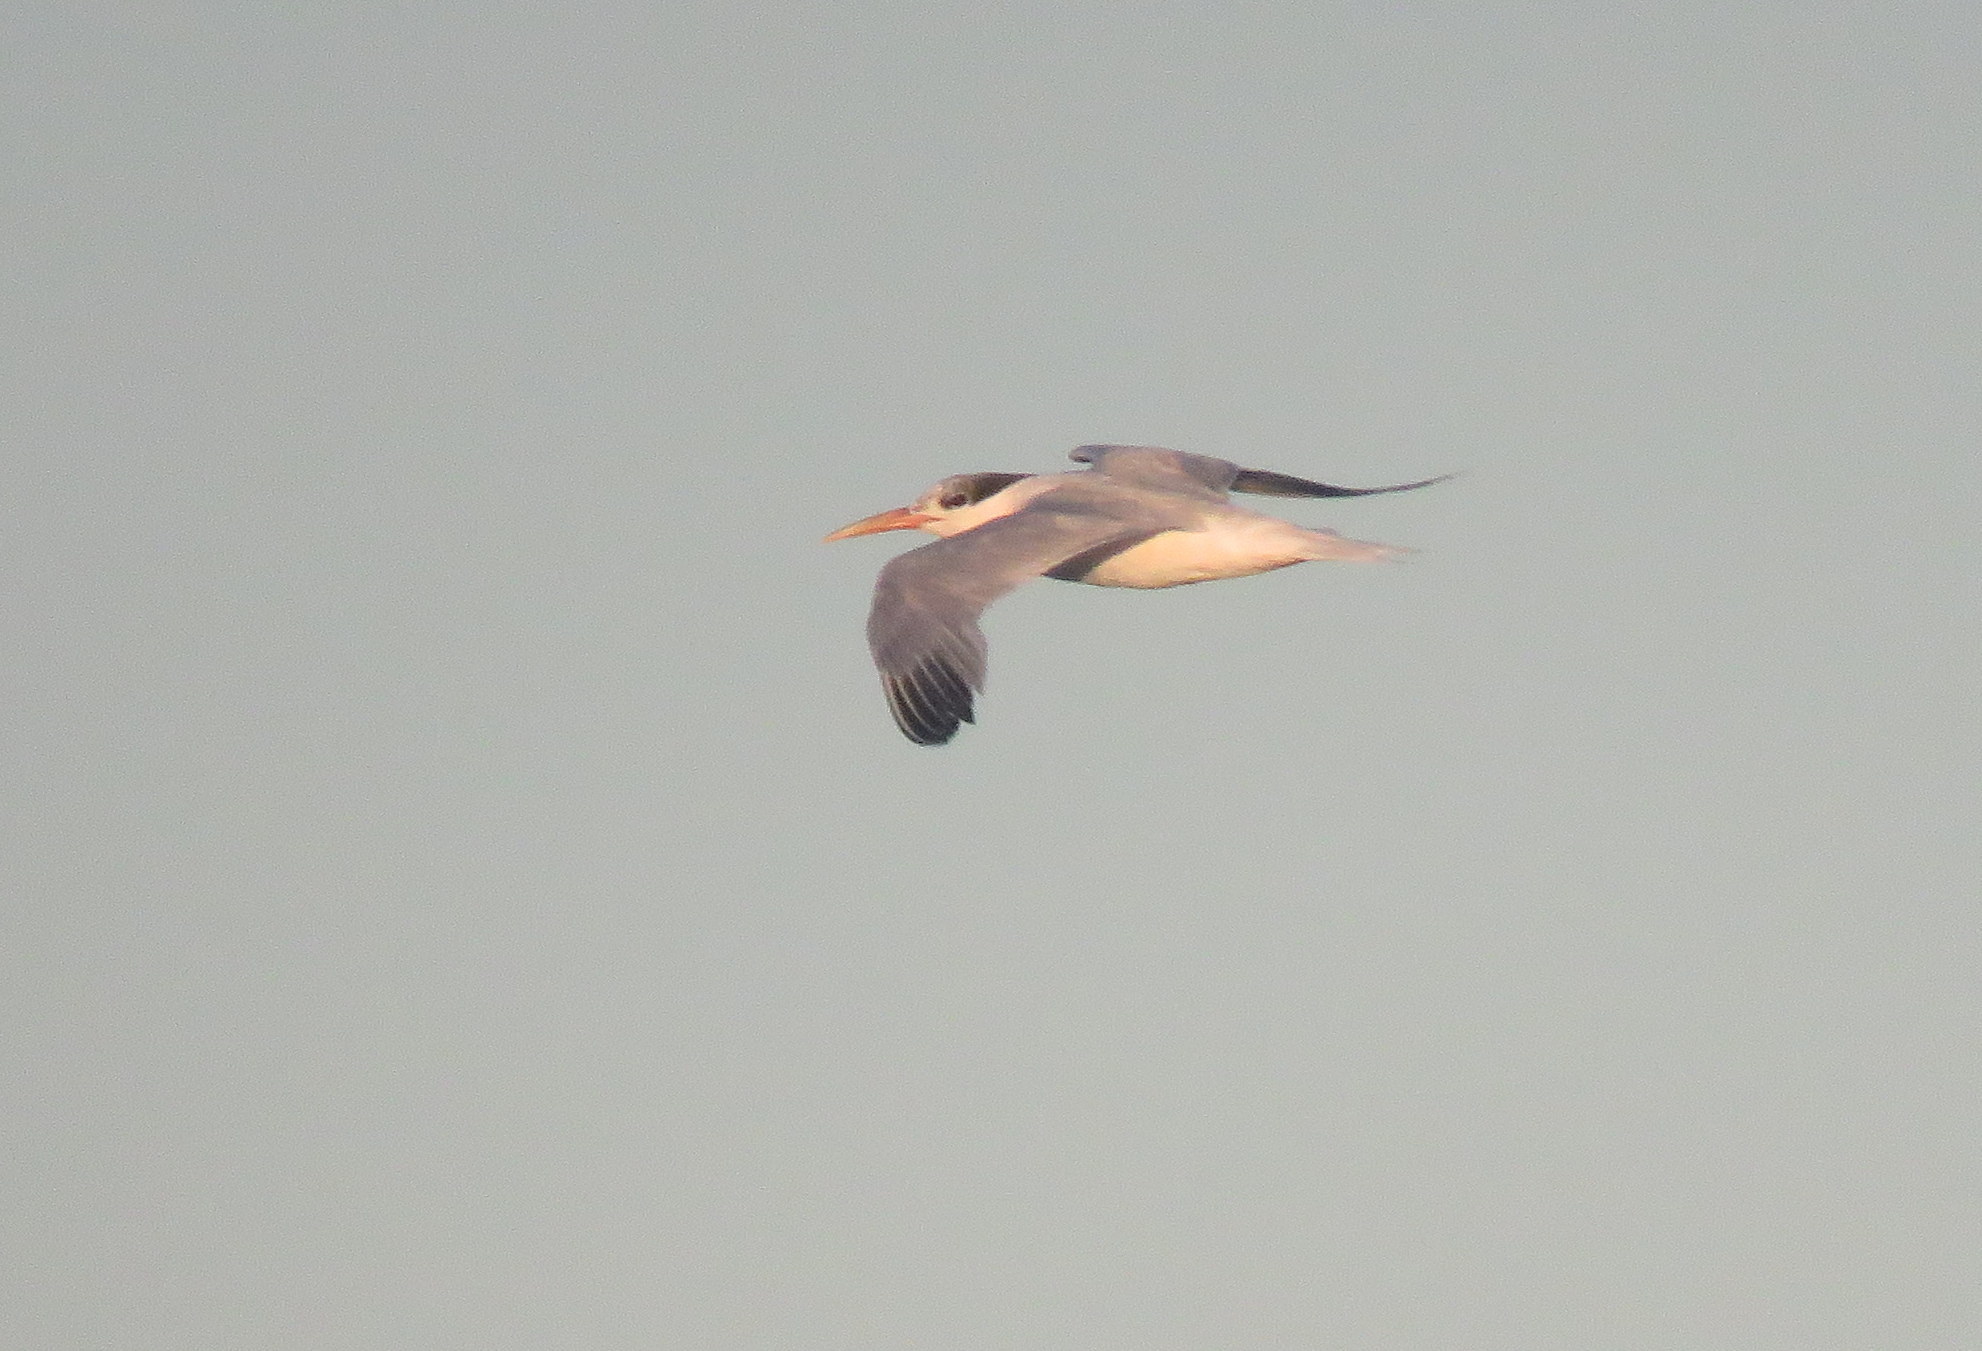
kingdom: Animalia
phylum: Chordata
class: Aves
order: Charadriiformes
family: Laridae
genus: Thalasseus
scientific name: Thalasseus acuflavidus
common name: Cabot's tern
